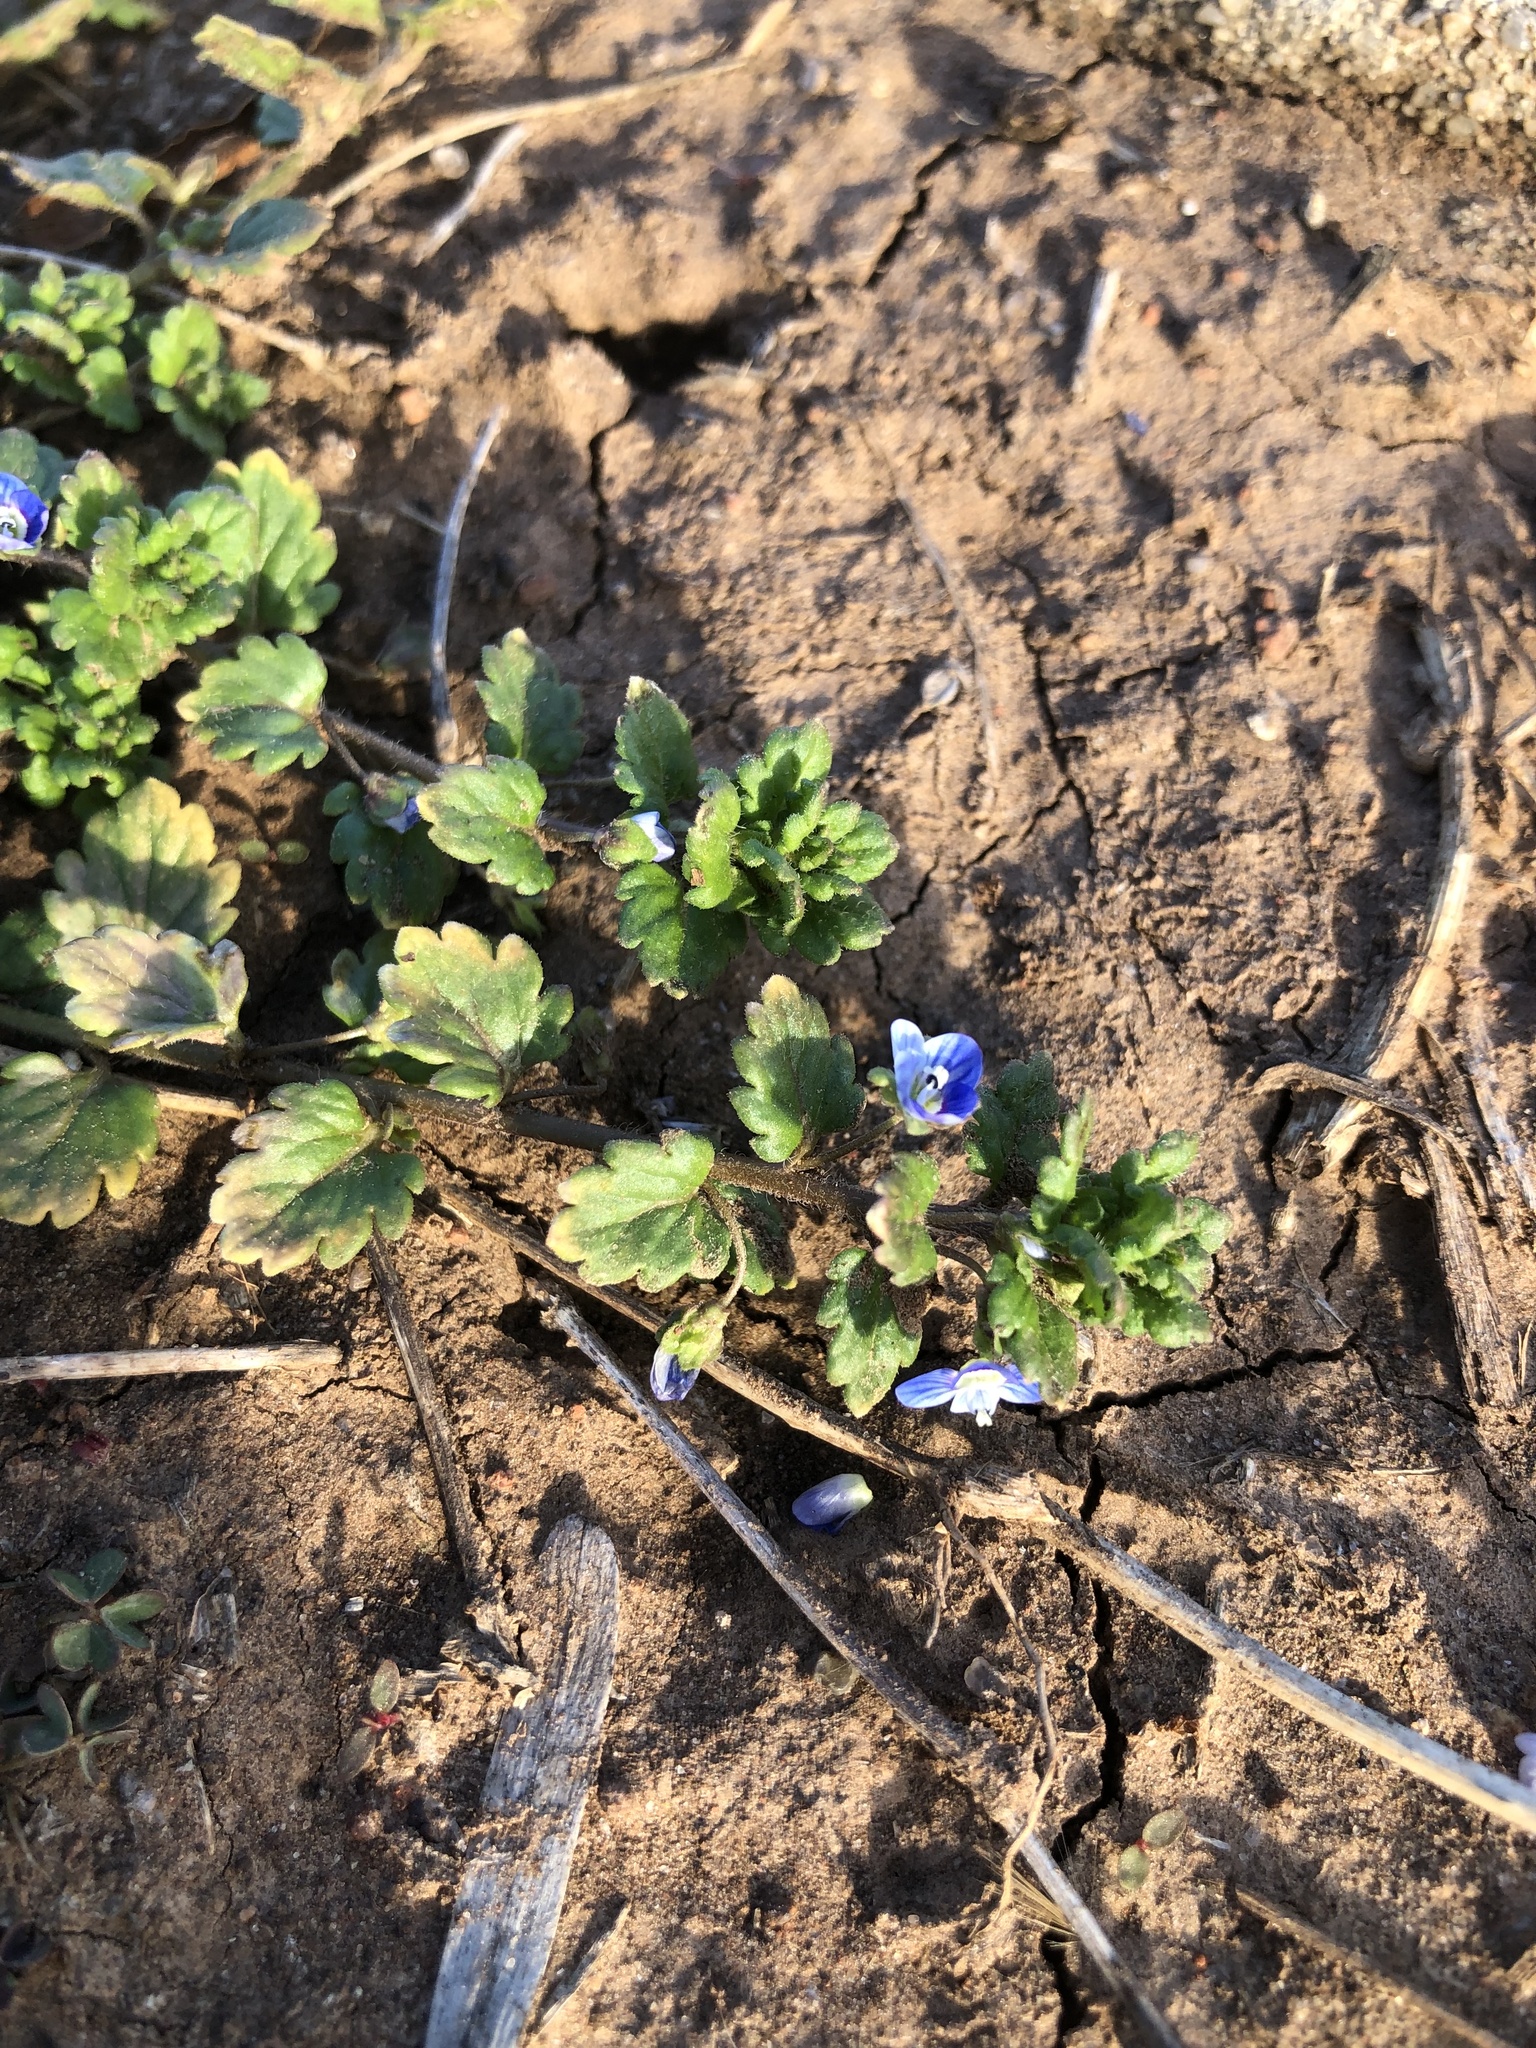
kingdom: Plantae
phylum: Tracheophyta
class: Magnoliopsida
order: Lamiales
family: Plantaginaceae
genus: Veronica
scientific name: Veronica polita
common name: Grey field-speedwell
